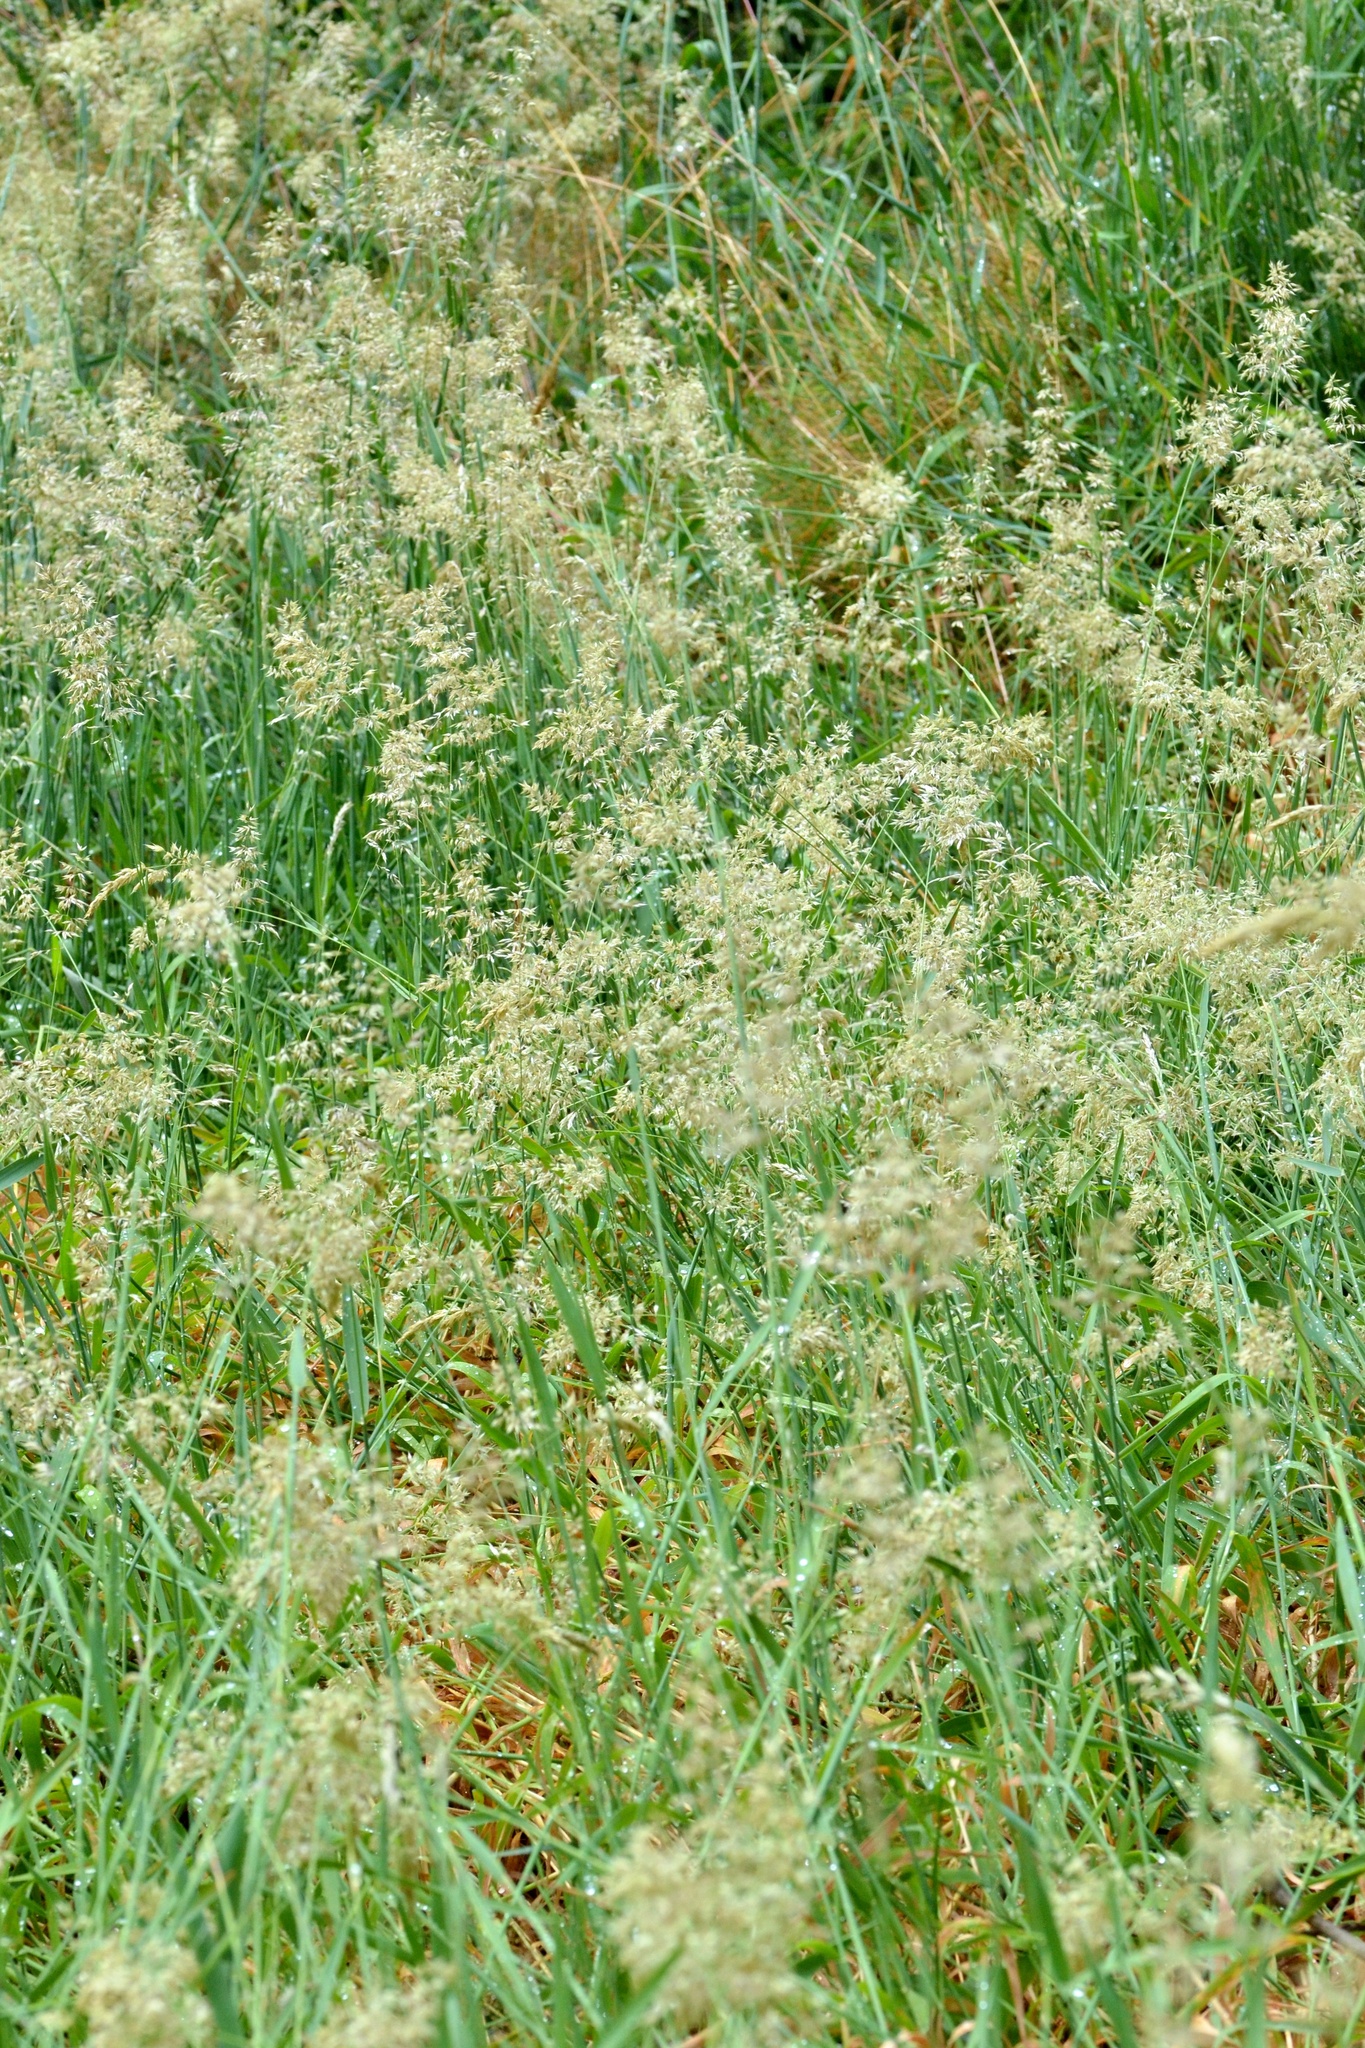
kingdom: Plantae
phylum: Tracheophyta
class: Liliopsida
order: Poales
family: Poaceae
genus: Holcus
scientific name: Holcus mollis
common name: Creeping velvetgrass
